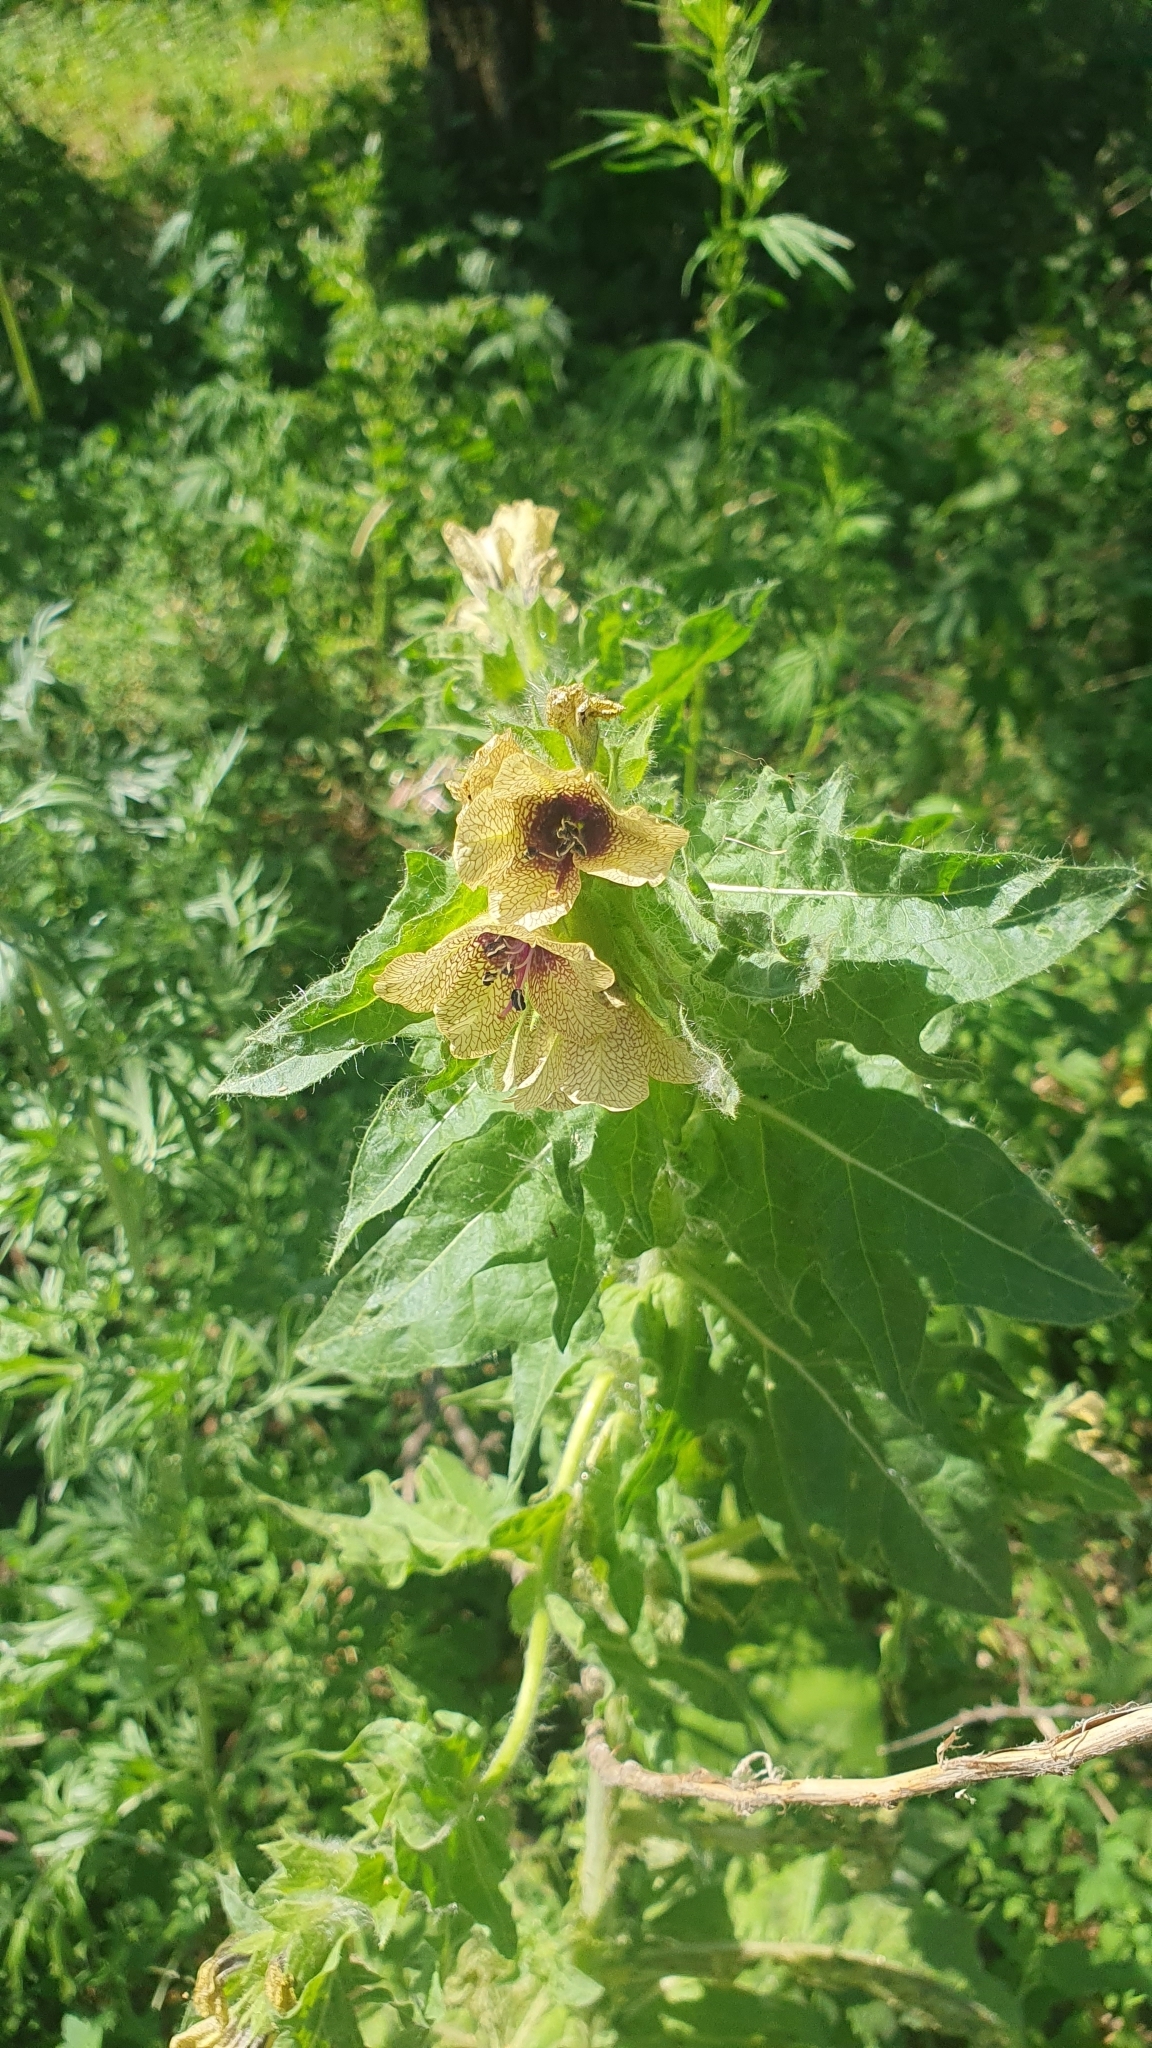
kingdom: Plantae
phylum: Tracheophyta
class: Magnoliopsida
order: Solanales
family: Solanaceae
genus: Hyoscyamus
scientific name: Hyoscyamus niger
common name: Henbane
